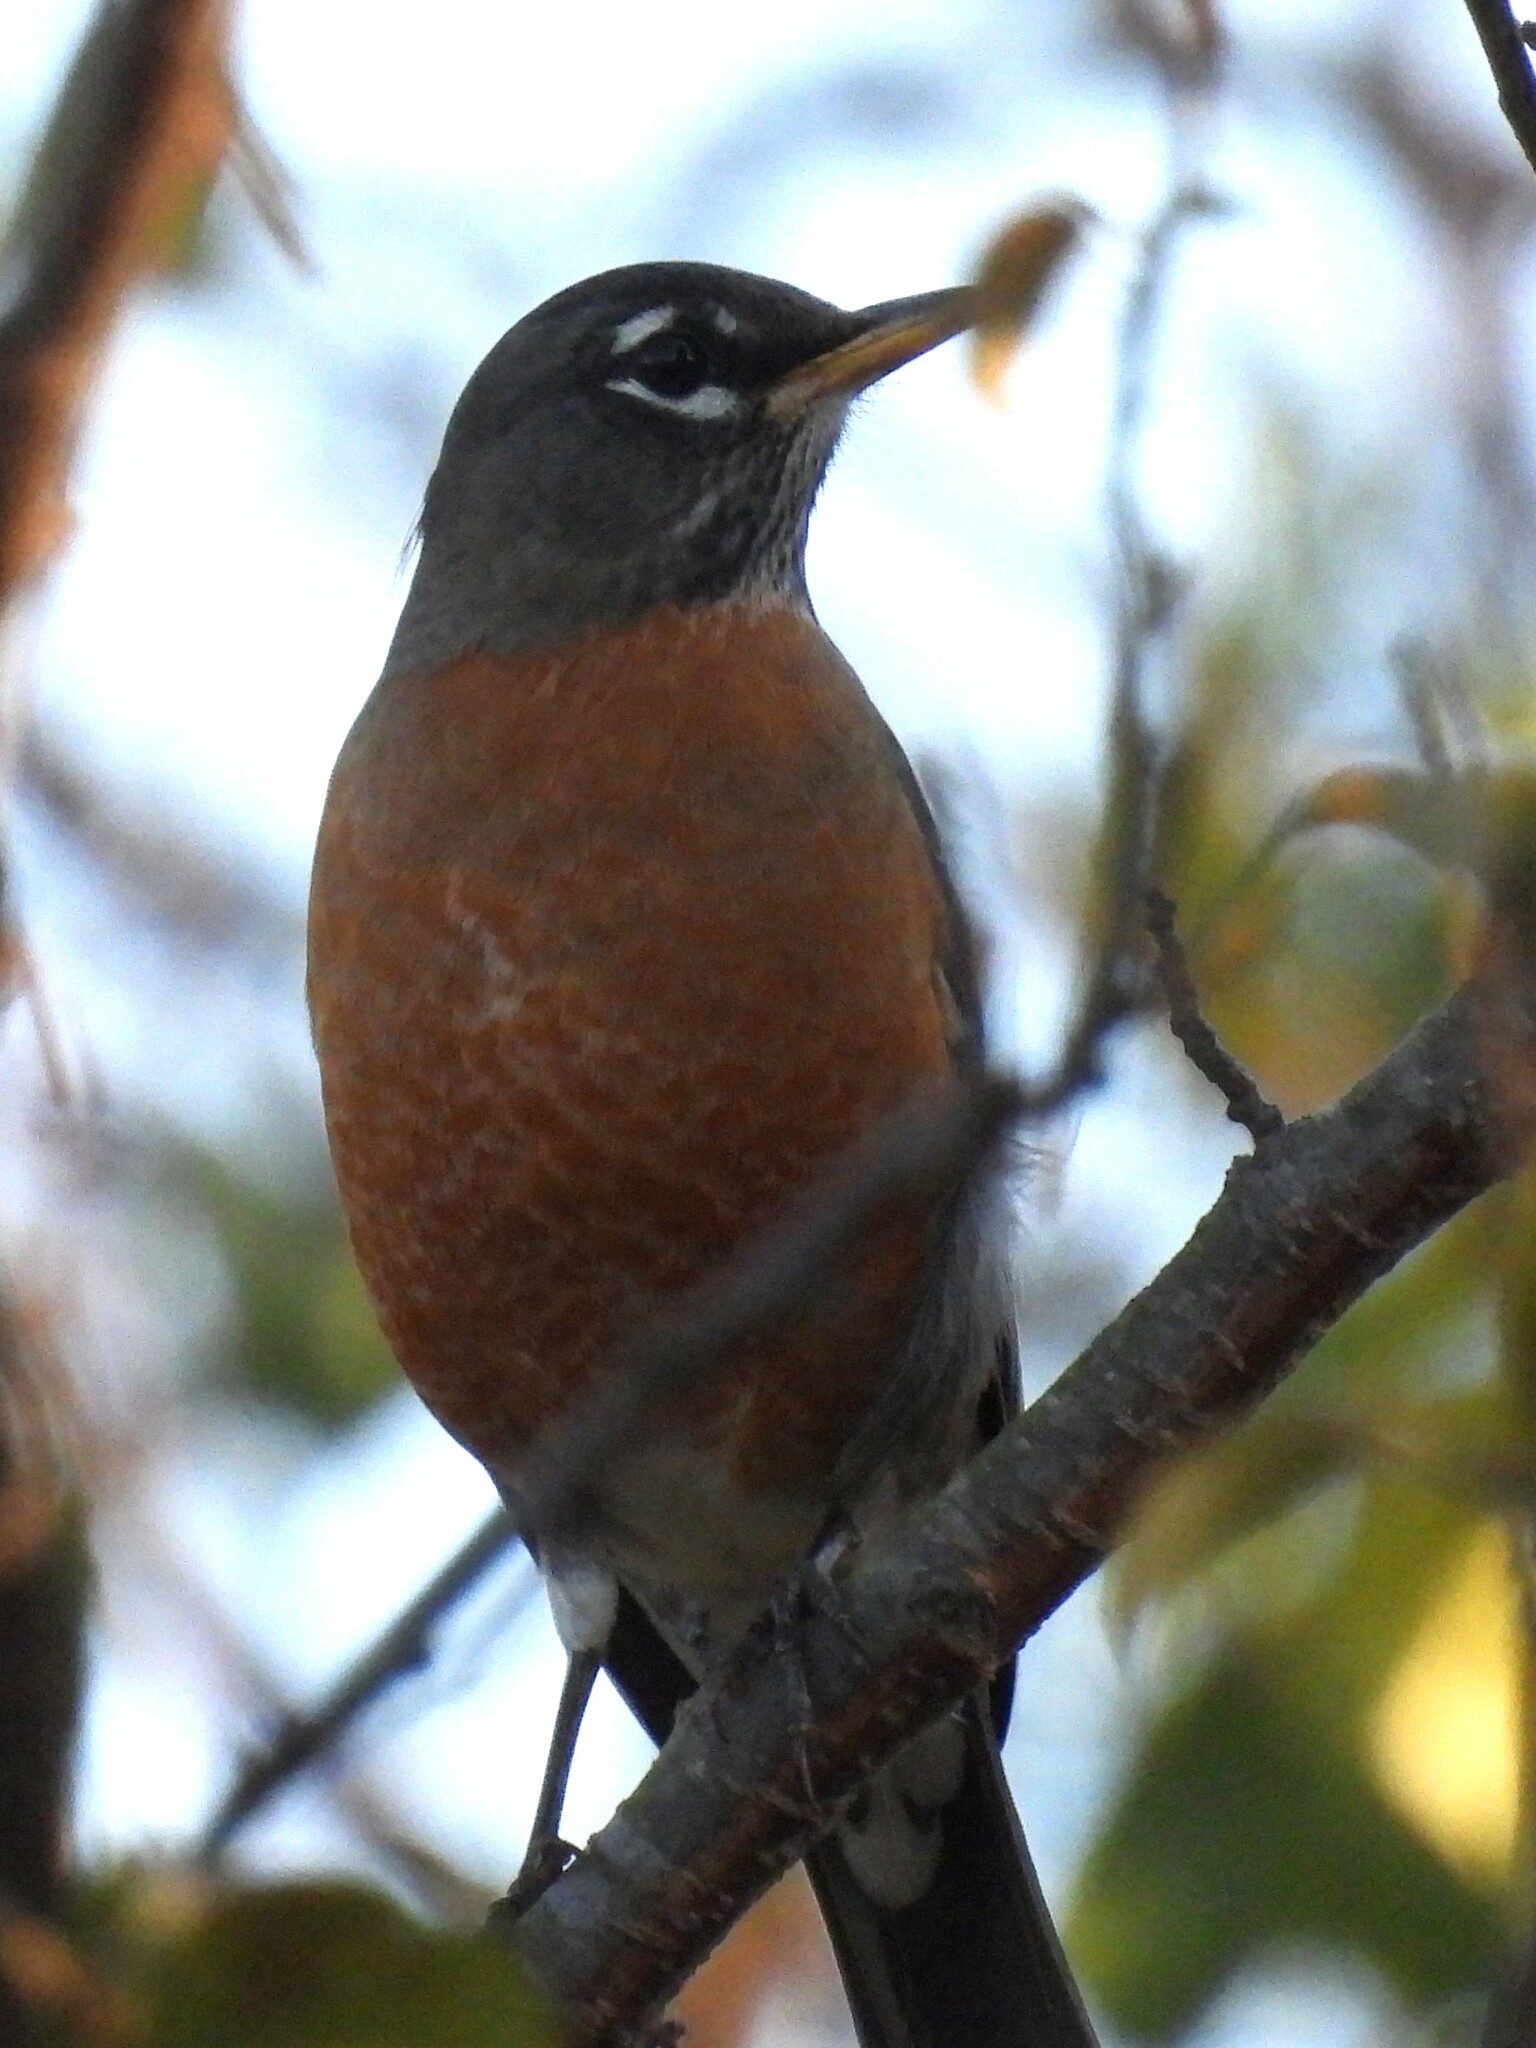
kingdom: Animalia
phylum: Chordata
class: Aves
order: Passeriformes
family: Turdidae
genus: Turdus
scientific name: Turdus migratorius
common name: American robin
